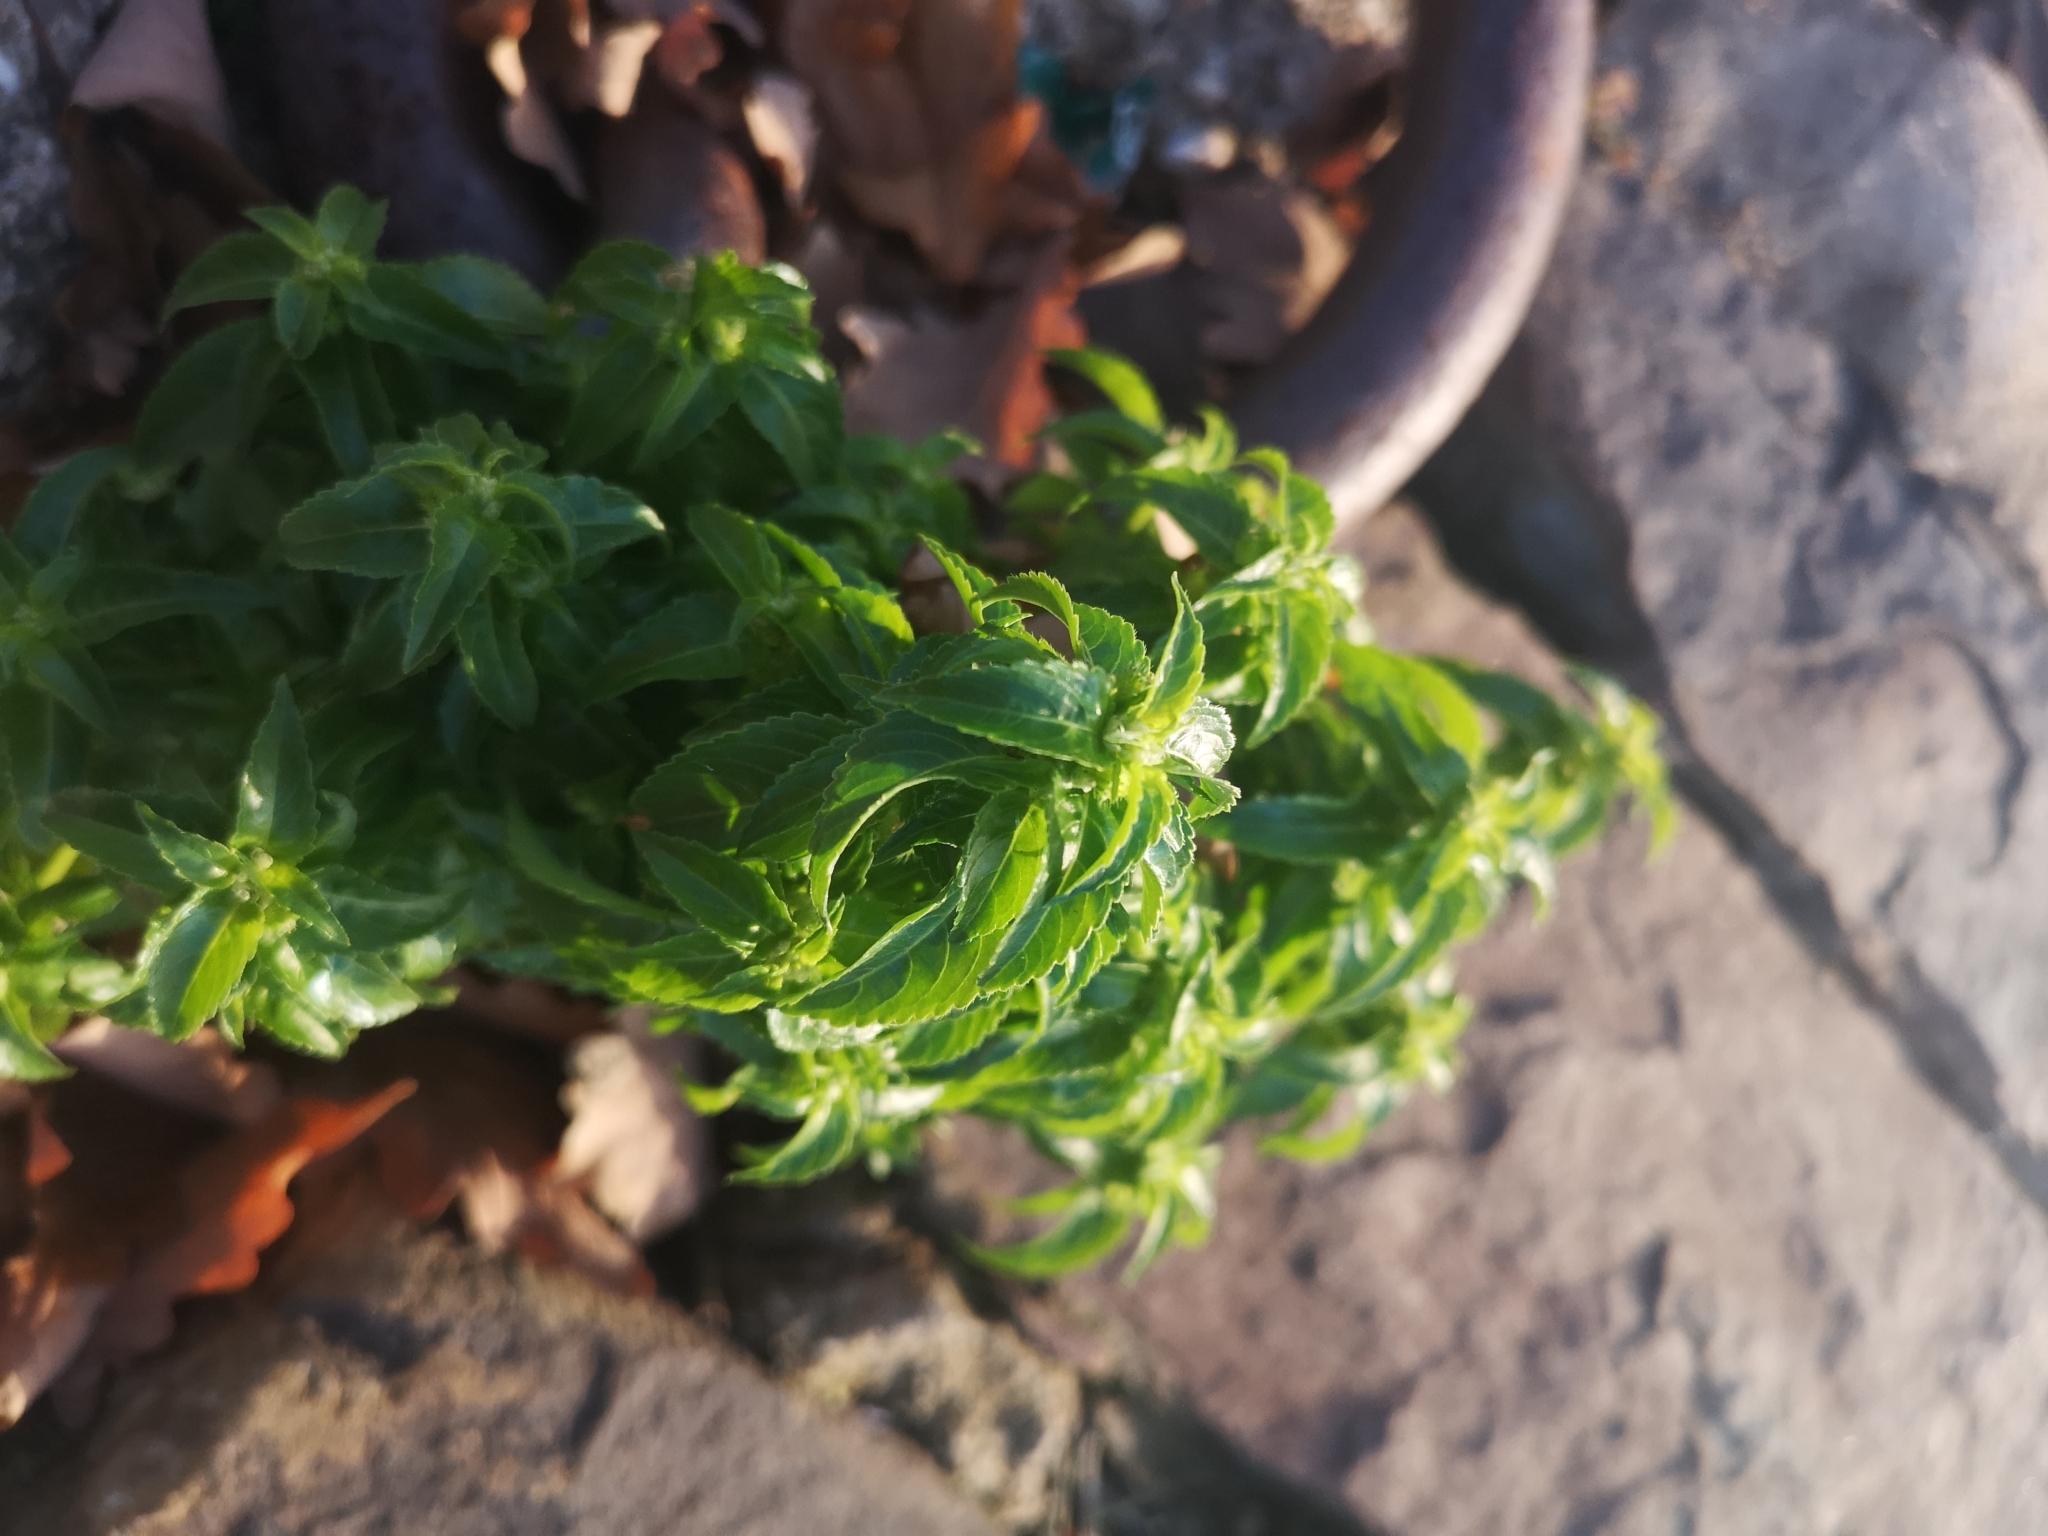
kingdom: Plantae
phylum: Tracheophyta
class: Magnoliopsida
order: Malpighiales
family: Euphorbiaceae
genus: Mercurialis
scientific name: Mercurialis annua
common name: Annual mercury
